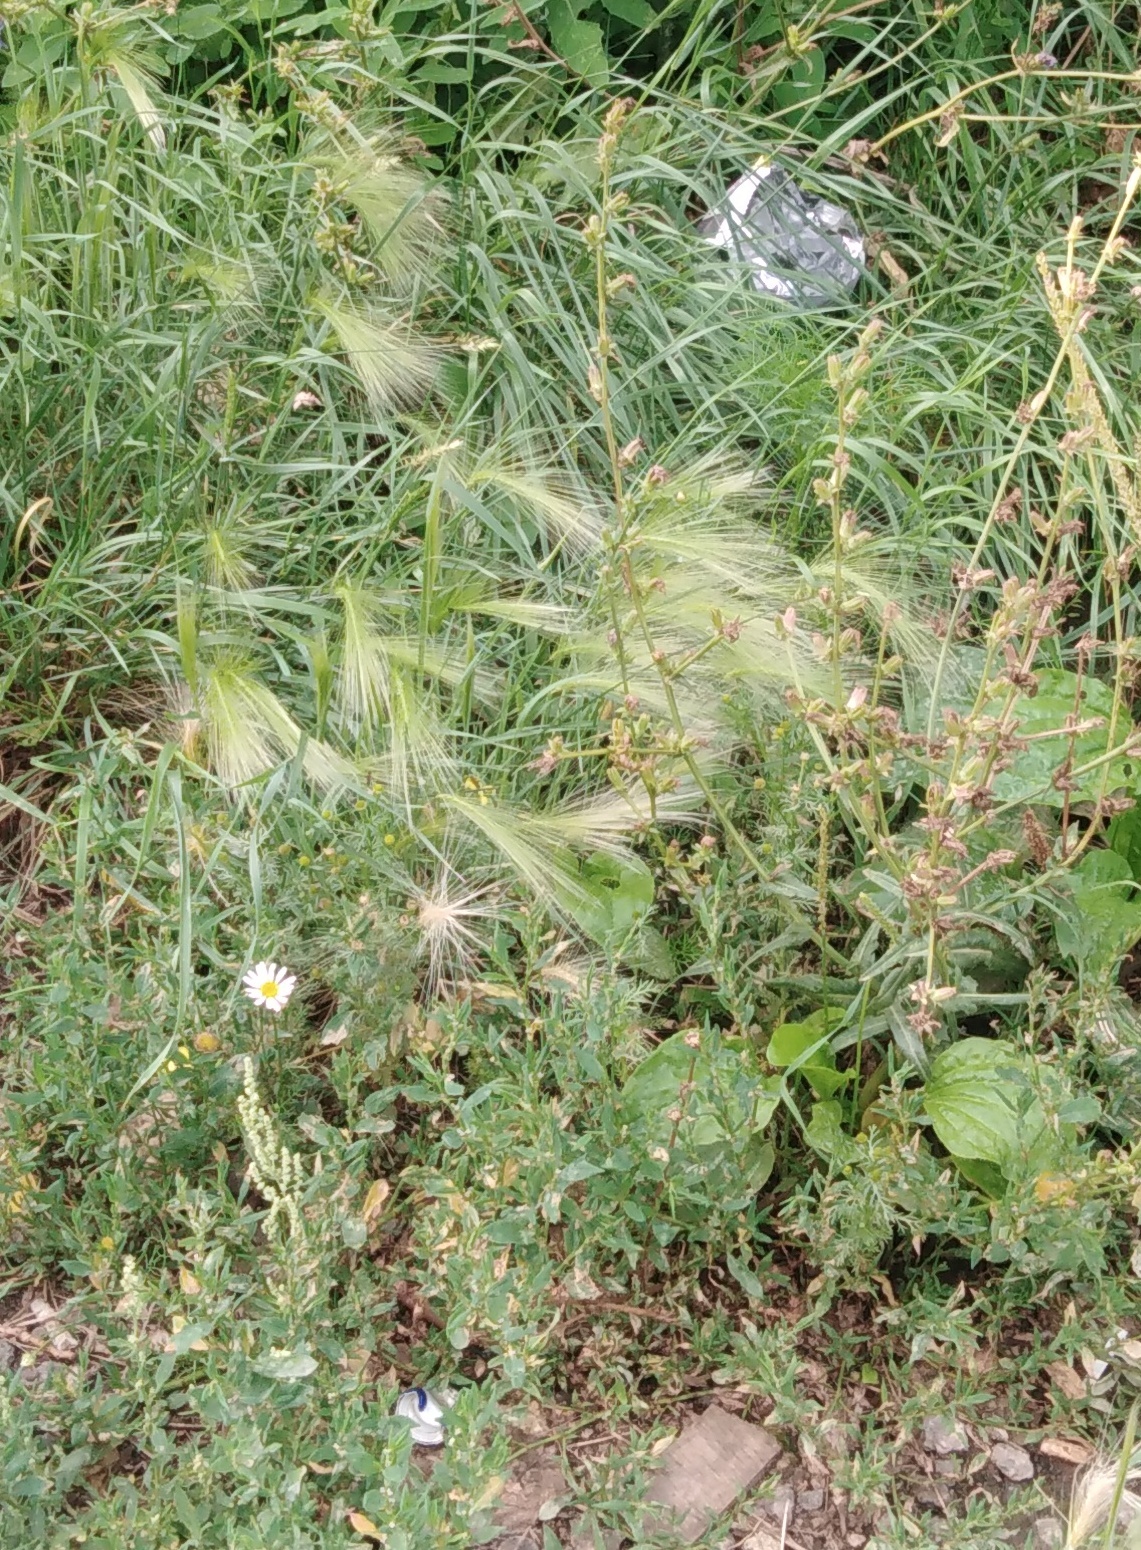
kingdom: Plantae
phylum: Tracheophyta
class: Liliopsida
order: Poales
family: Poaceae
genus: Hordeum
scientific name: Hordeum jubatum
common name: Foxtail barley
